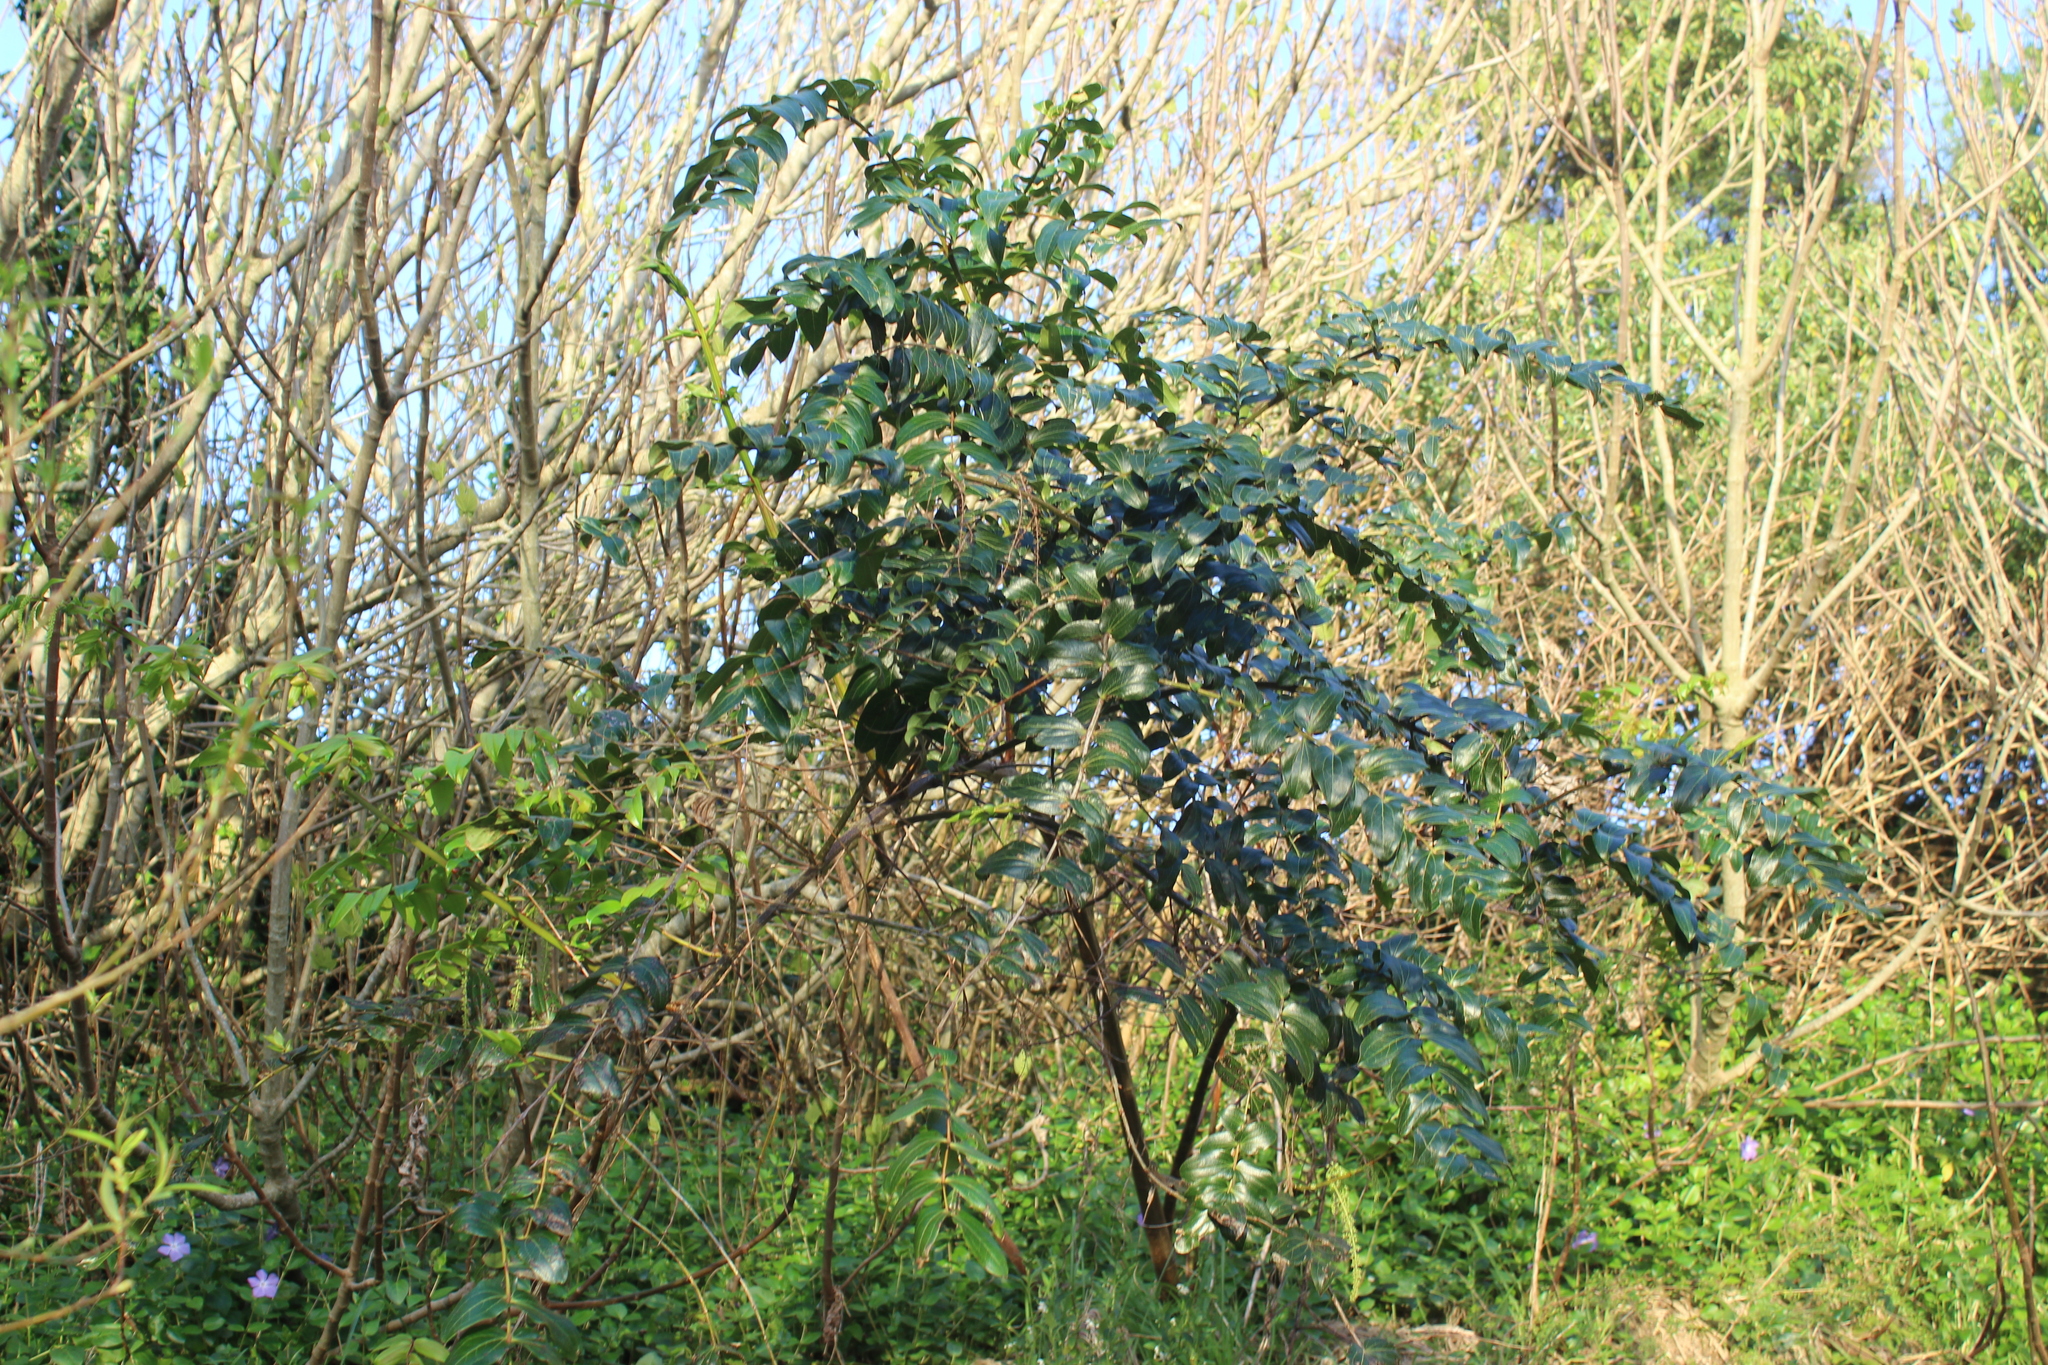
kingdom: Plantae
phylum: Tracheophyta
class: Magnoliopsida
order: Cucurbitales
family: Coriariaceae
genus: Coriaria
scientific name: Coriaria arborea
